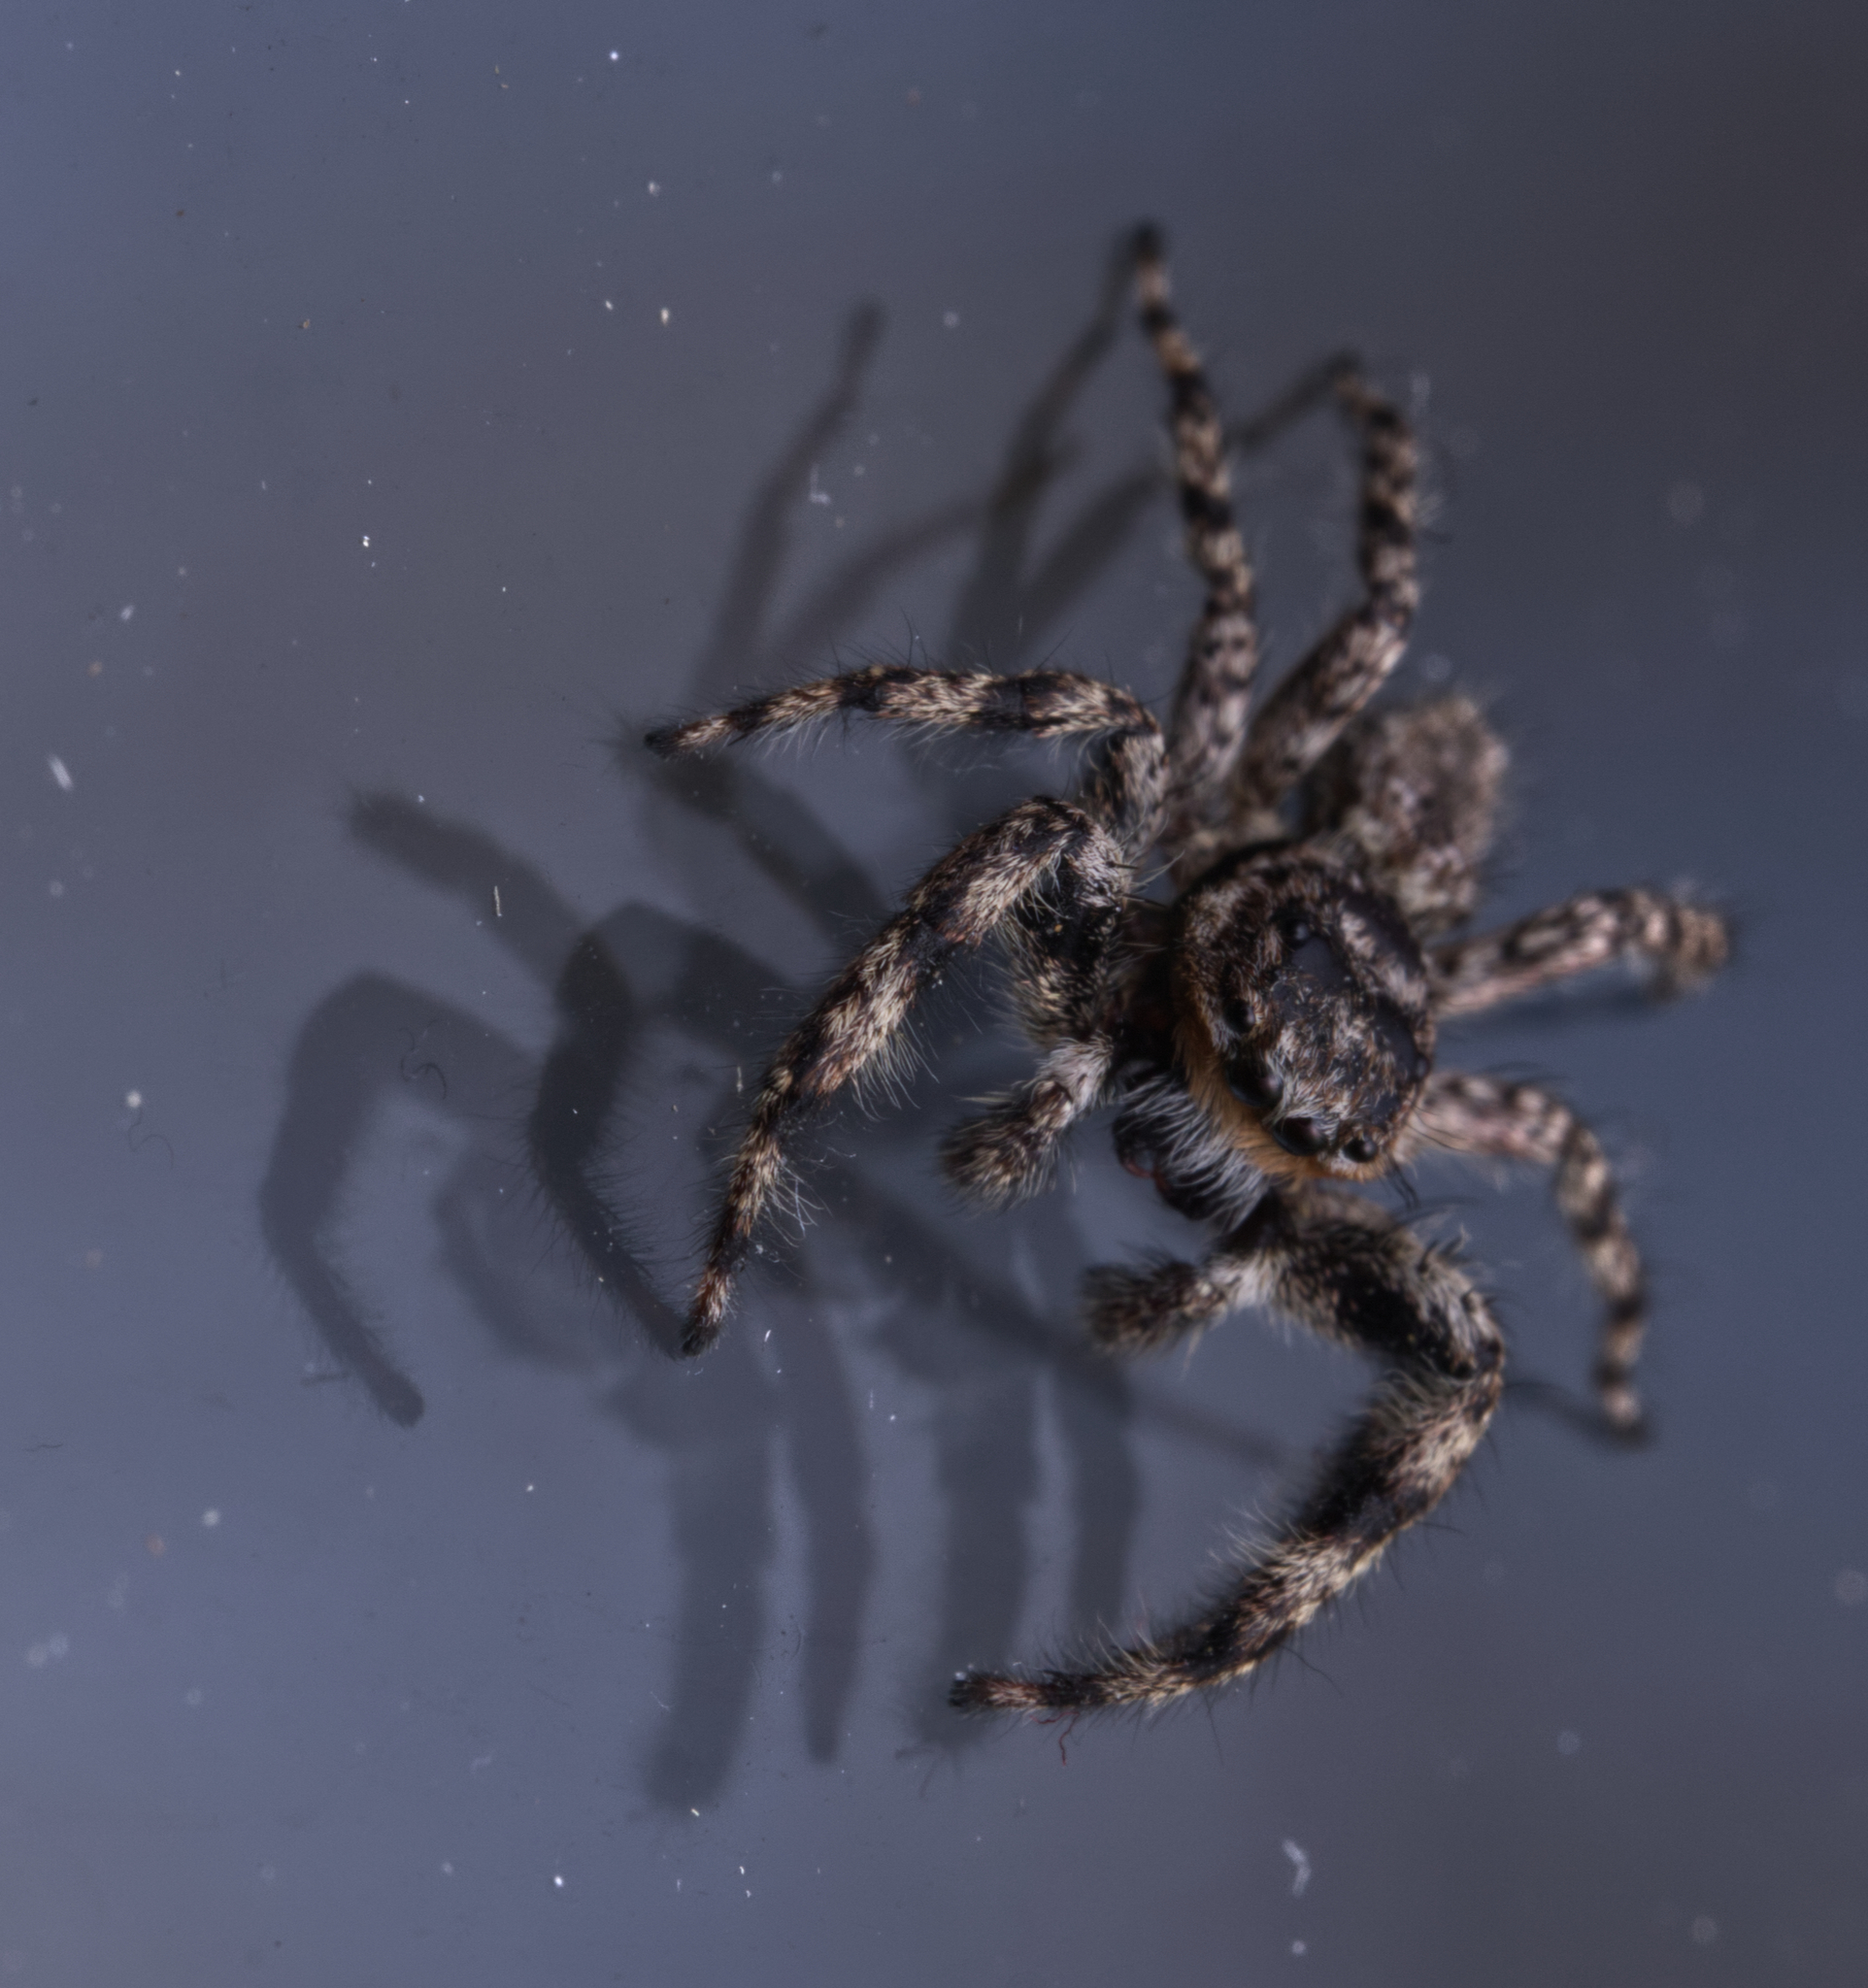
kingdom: Animalia
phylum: Arthropoda
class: Arachnida
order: Araneae
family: Salticidae
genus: Platycryptus
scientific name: Platycryptus undatus
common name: Tan jumping spider
